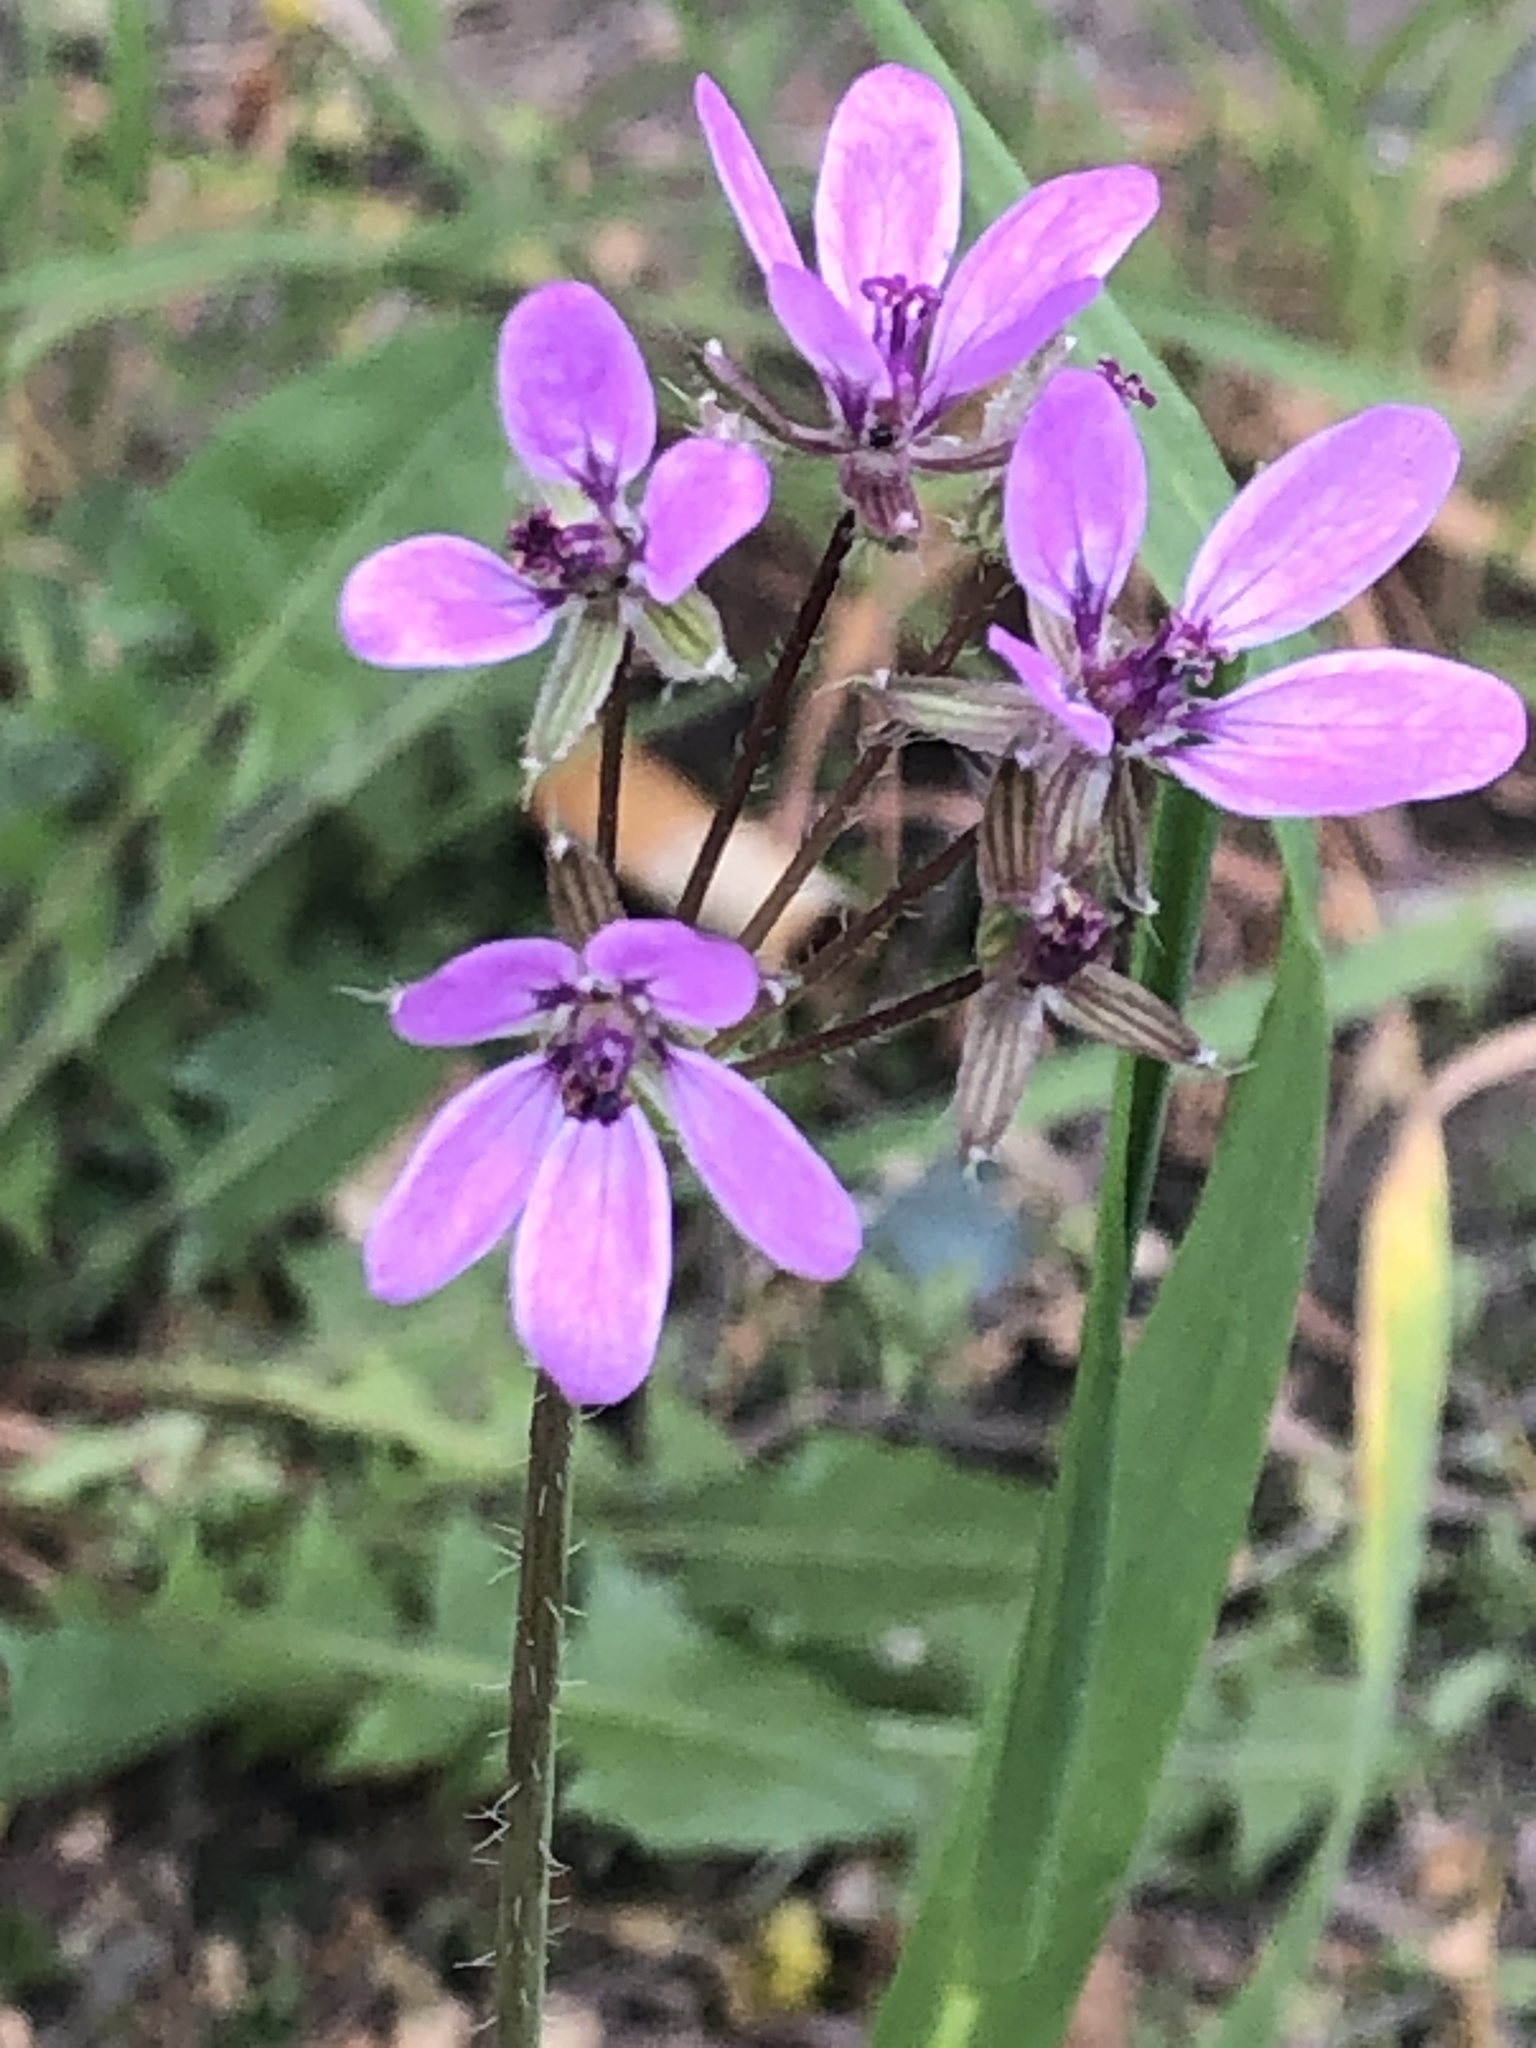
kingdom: Plantae
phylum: Tracheophyta
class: Magnoliopsida
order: Geraniales
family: Geraniaceae
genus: Erodium
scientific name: Erodium cicutarium
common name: Common stork's-bill
